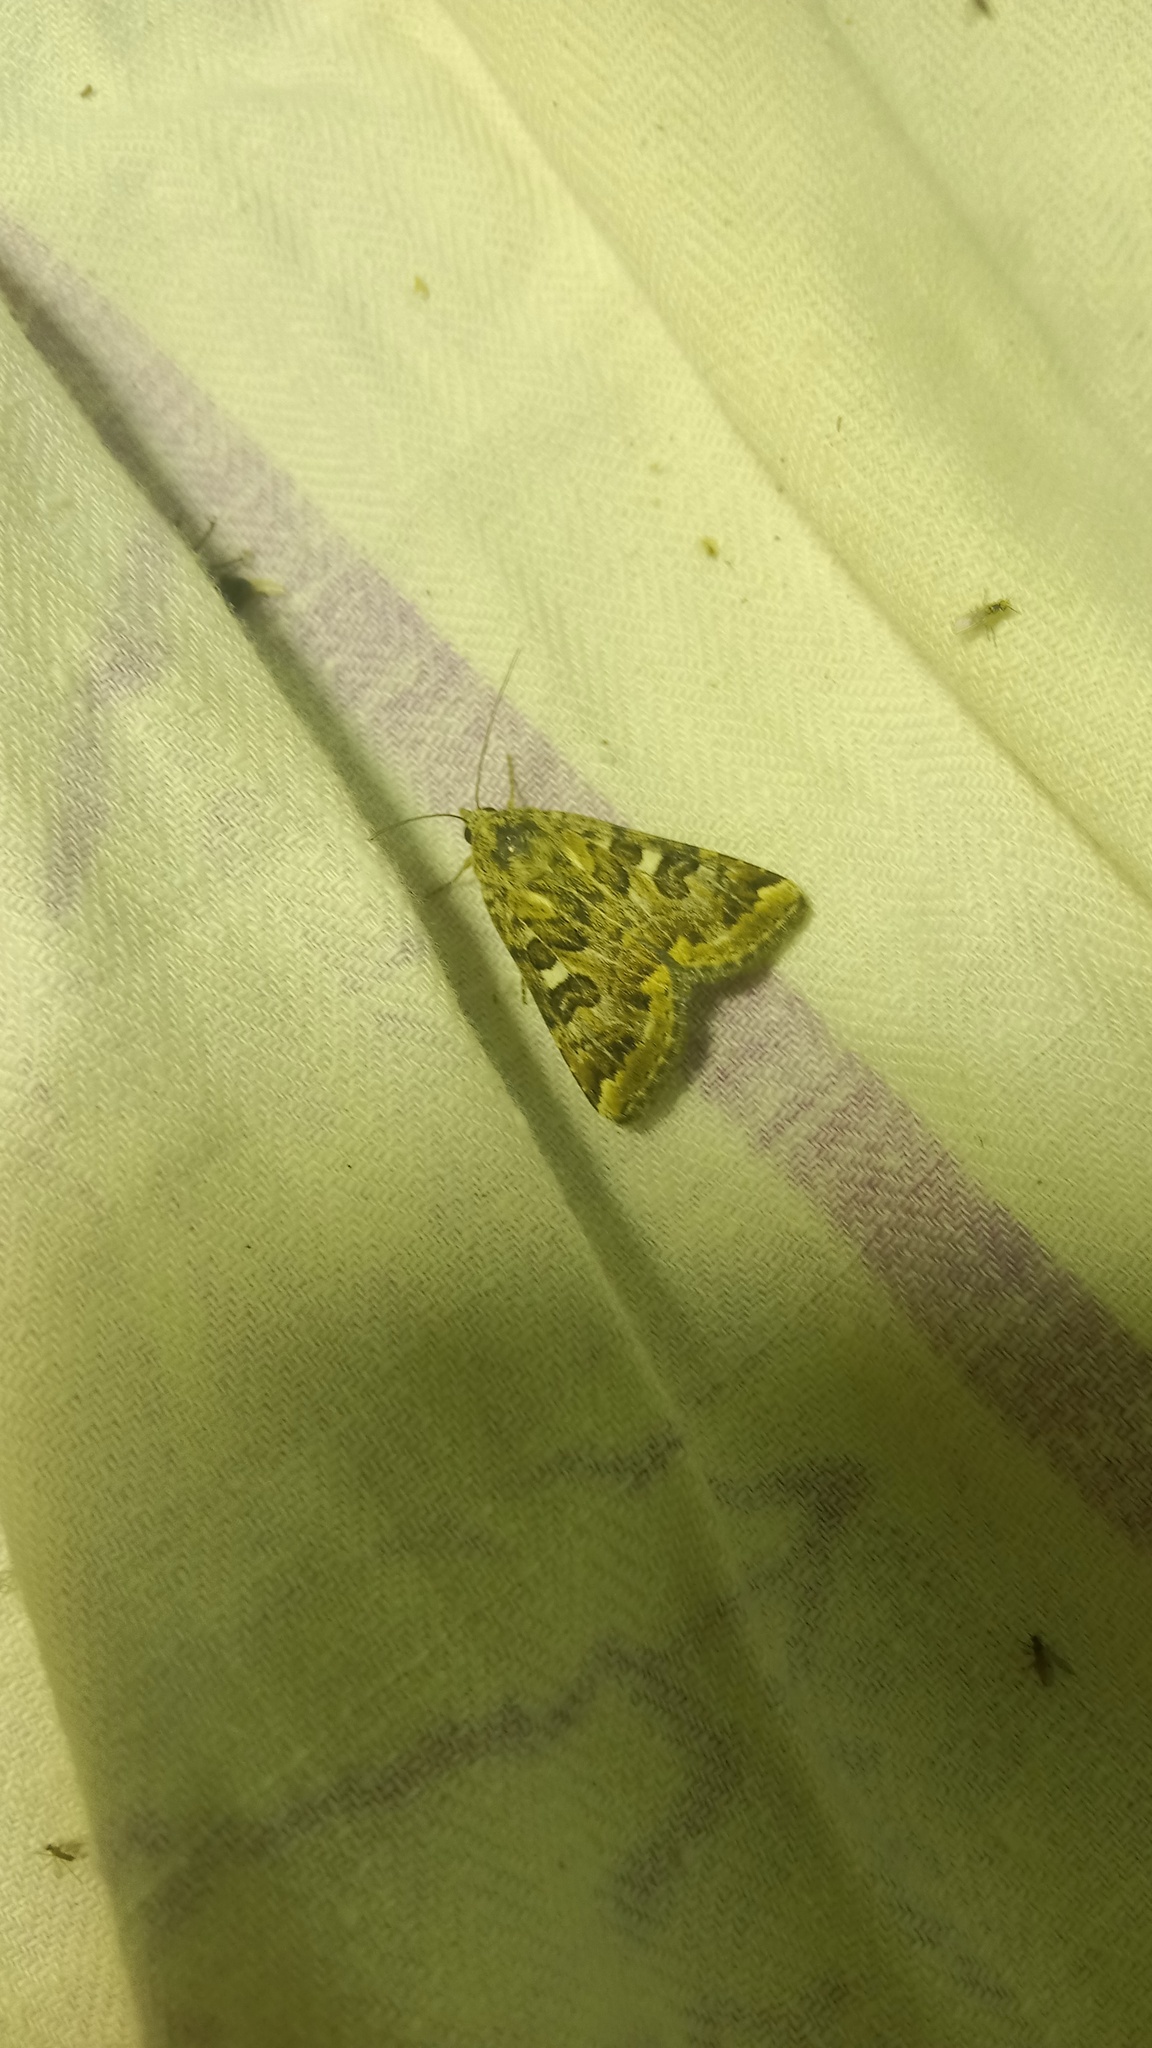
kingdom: Animalia
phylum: Arthropoda
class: Insecta
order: Lepidoptera
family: Noctuidae
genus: Protoschinia
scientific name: Protoschinia scutosa
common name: Spotted clover
